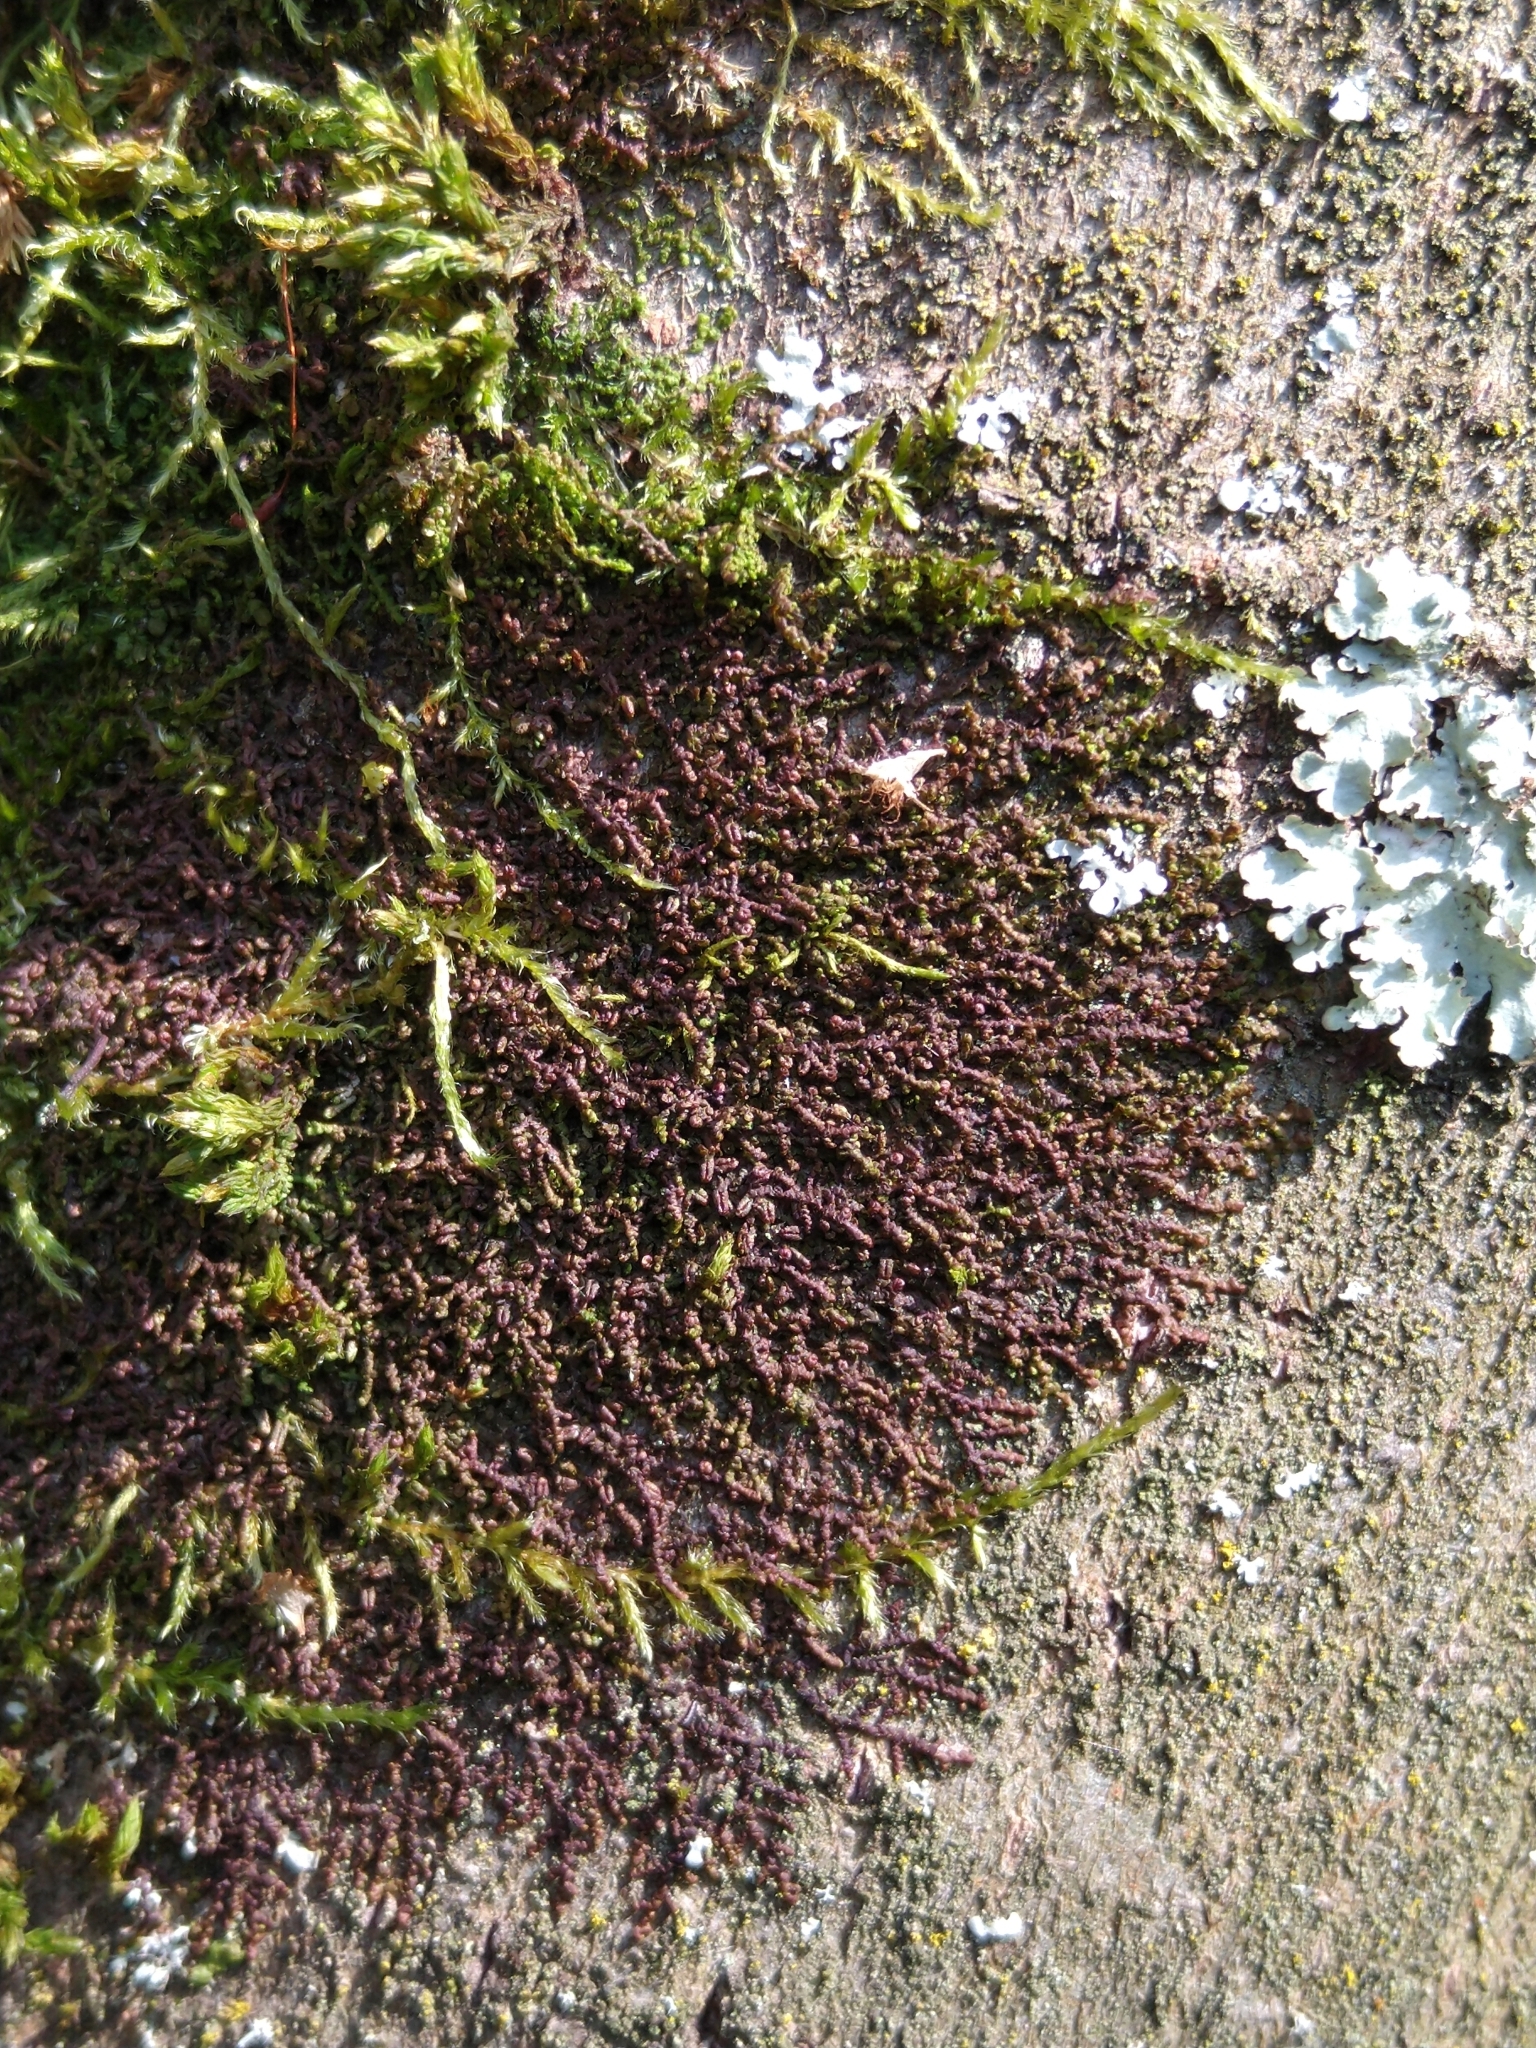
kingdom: Plantae
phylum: Marchantiophyta
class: Jungermanniopsida
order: Porellales
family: Frullaniaceae
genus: Frullania
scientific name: Frullania dilatata
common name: Dilated scalewort
